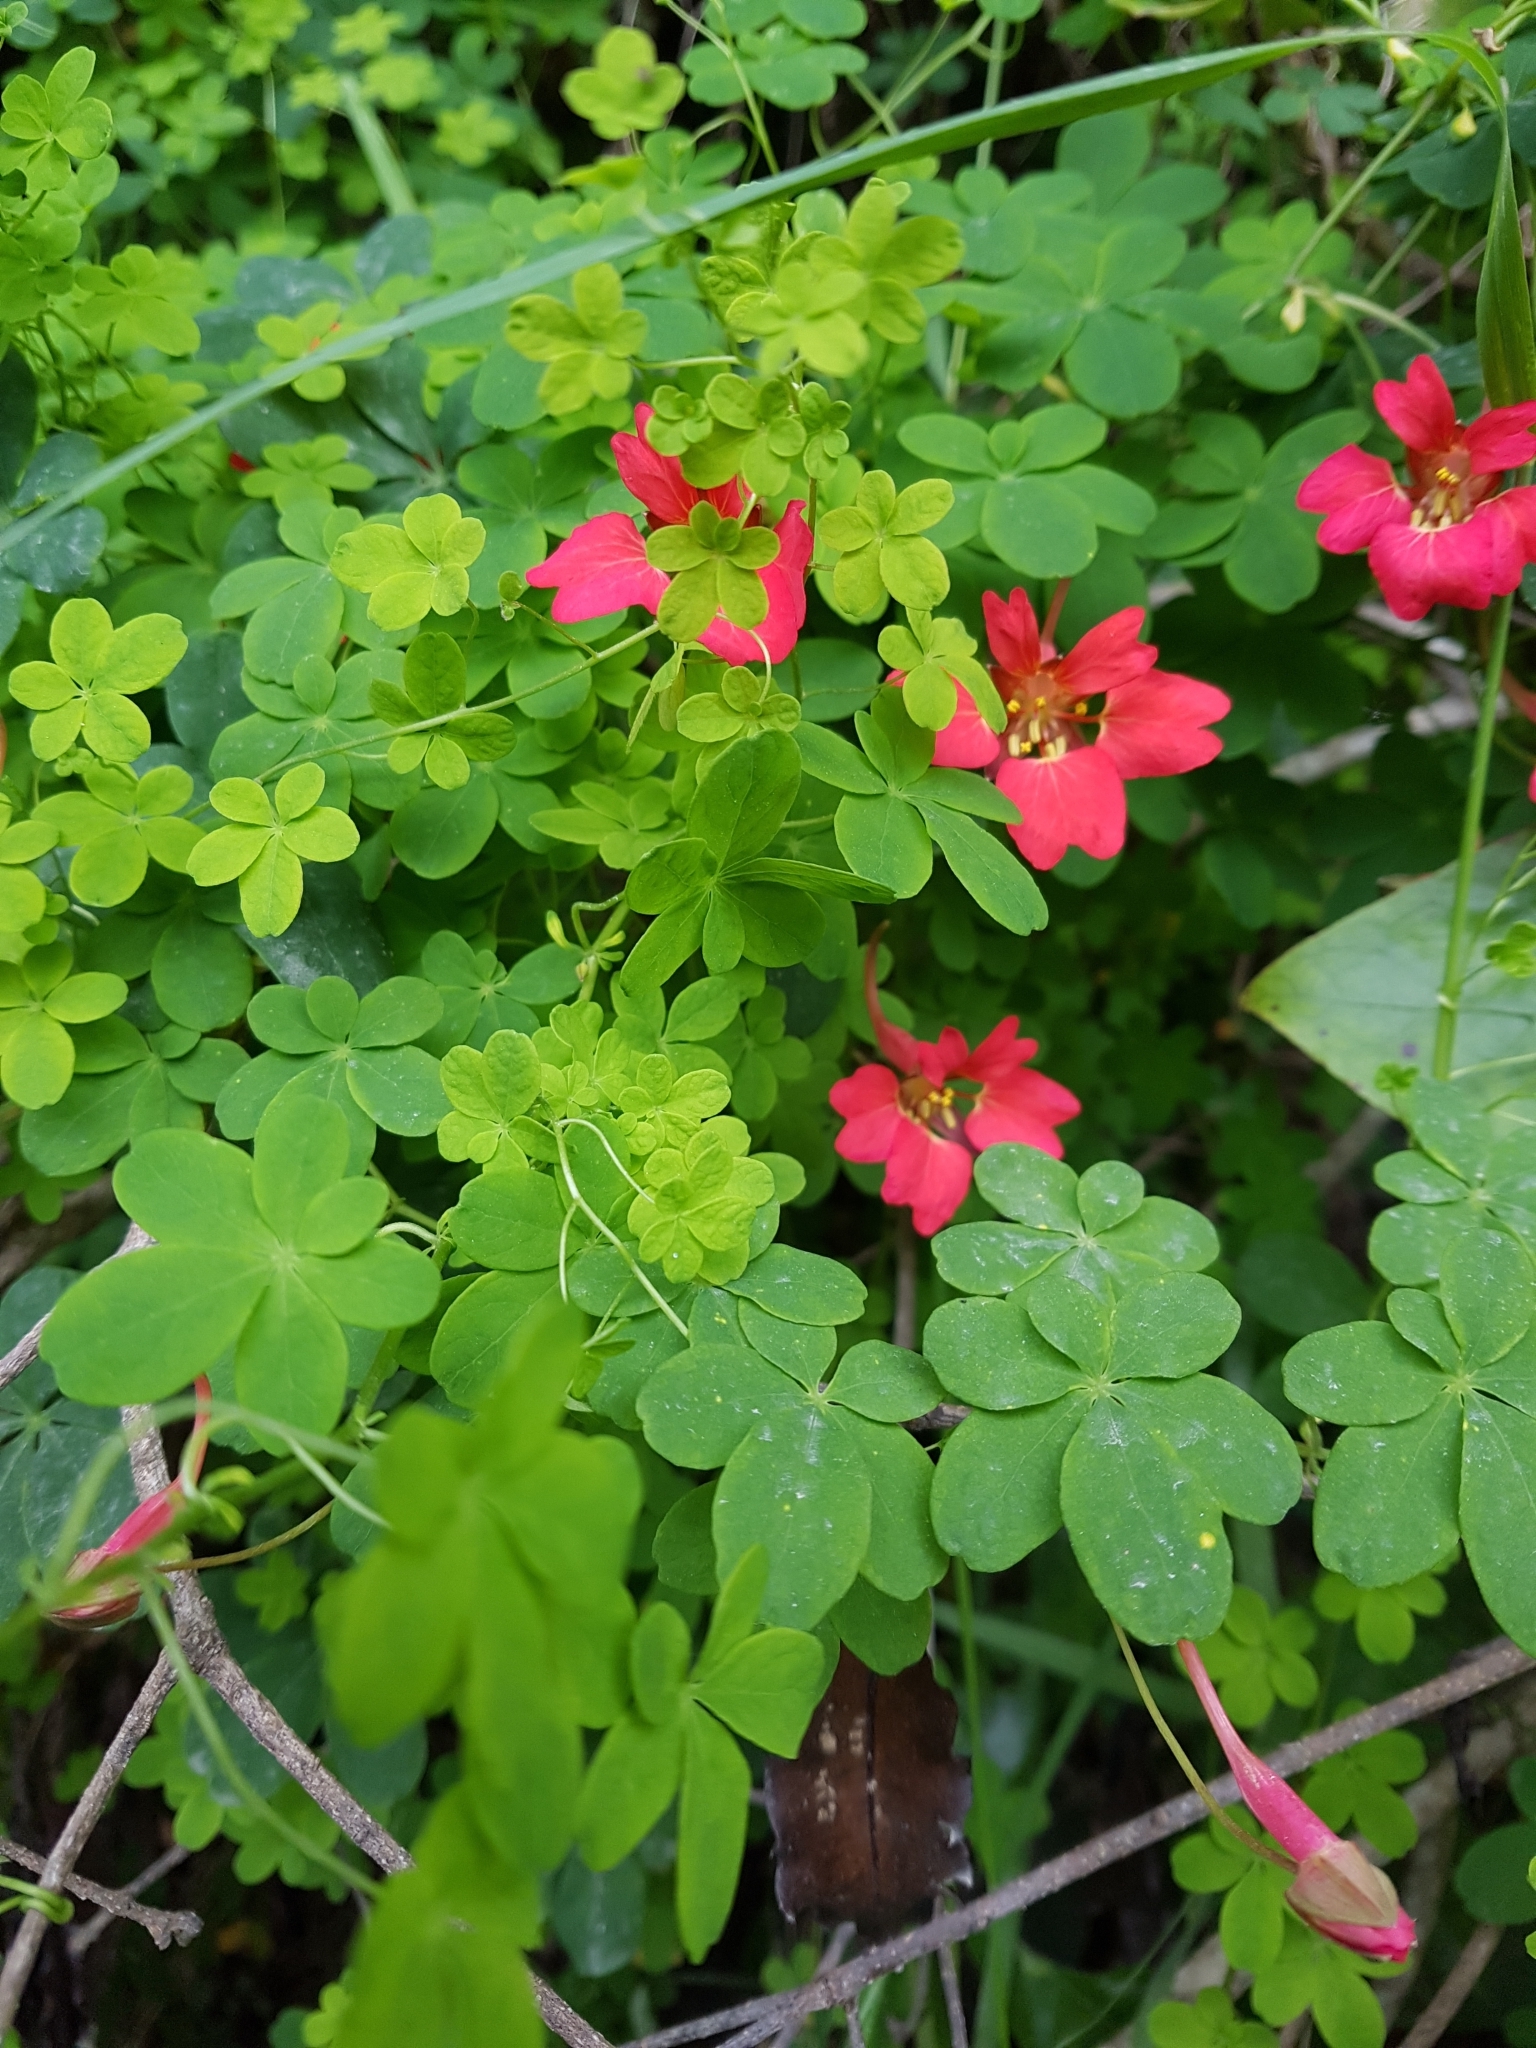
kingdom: Plantae
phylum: Tracheophyta
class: Magnoliopsida
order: Brassicales
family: Tropaeolaceae
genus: Tropaeolum
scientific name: Tropaeolum speciosum
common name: Flame nasturtium
